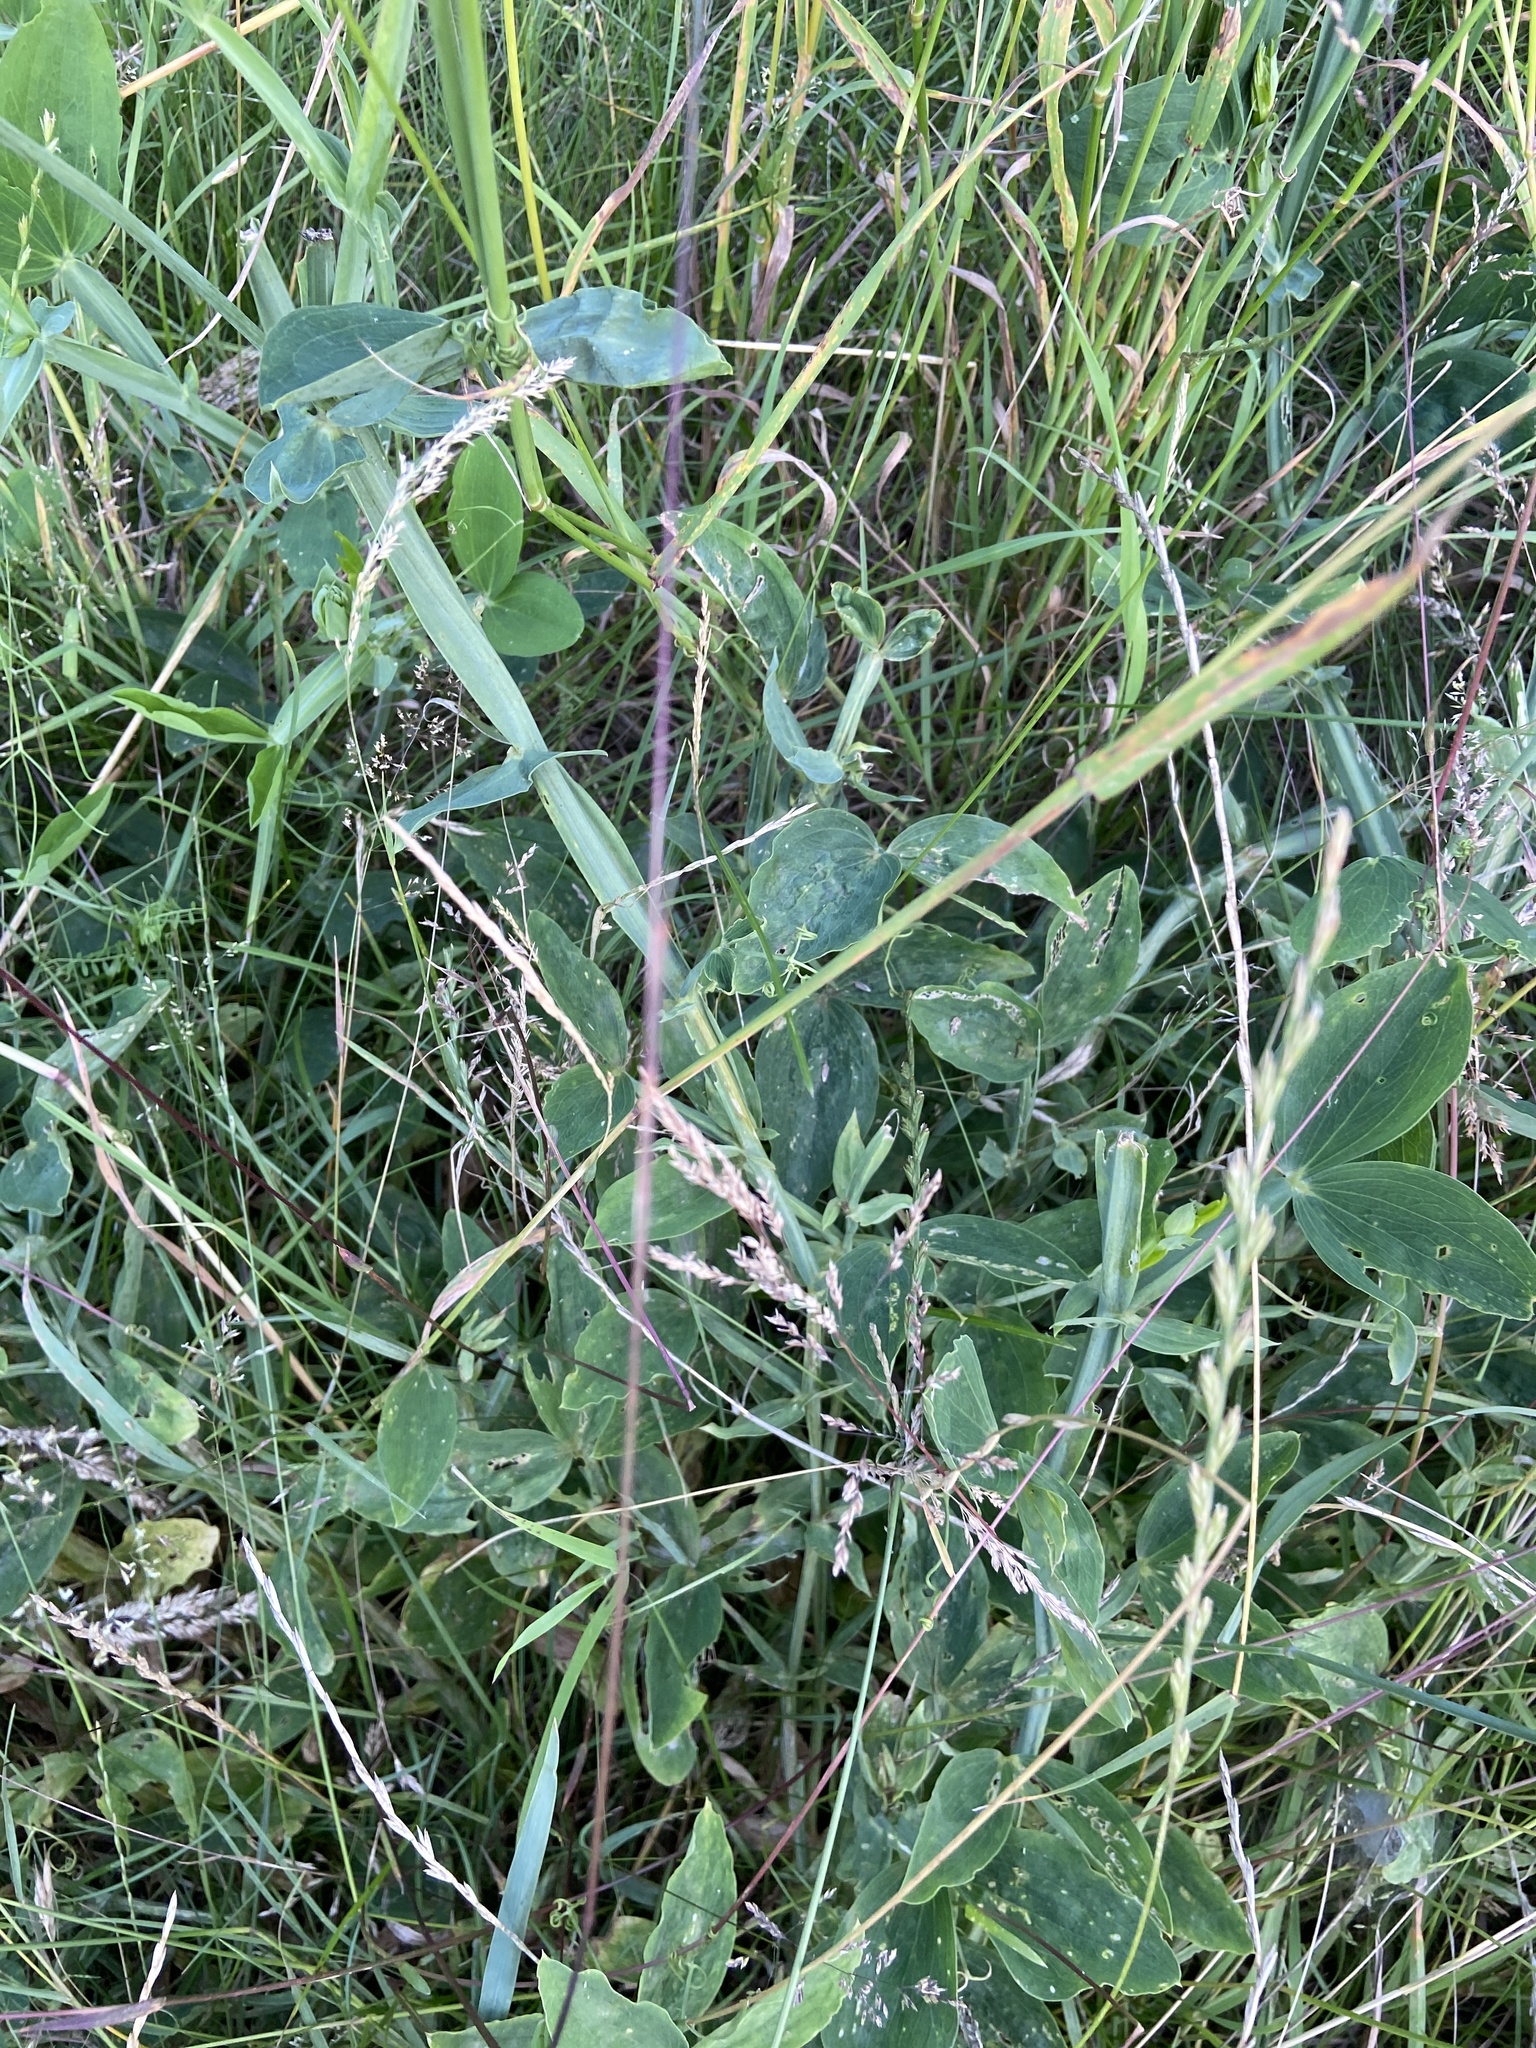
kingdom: Plantae
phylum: Tracheophyta
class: Magnoliopsida
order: Fabales
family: Fabaceae
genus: Lathyrus
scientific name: Lathyrus latifolius
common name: Perennial pea
